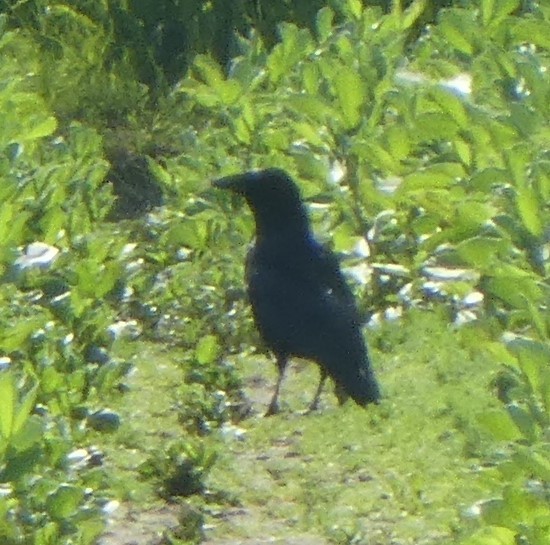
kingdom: Animalia
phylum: Chordata
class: Aves
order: Passeriformes
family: Corvidae
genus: Corvus
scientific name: Corvus corone
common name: Carrion crow
